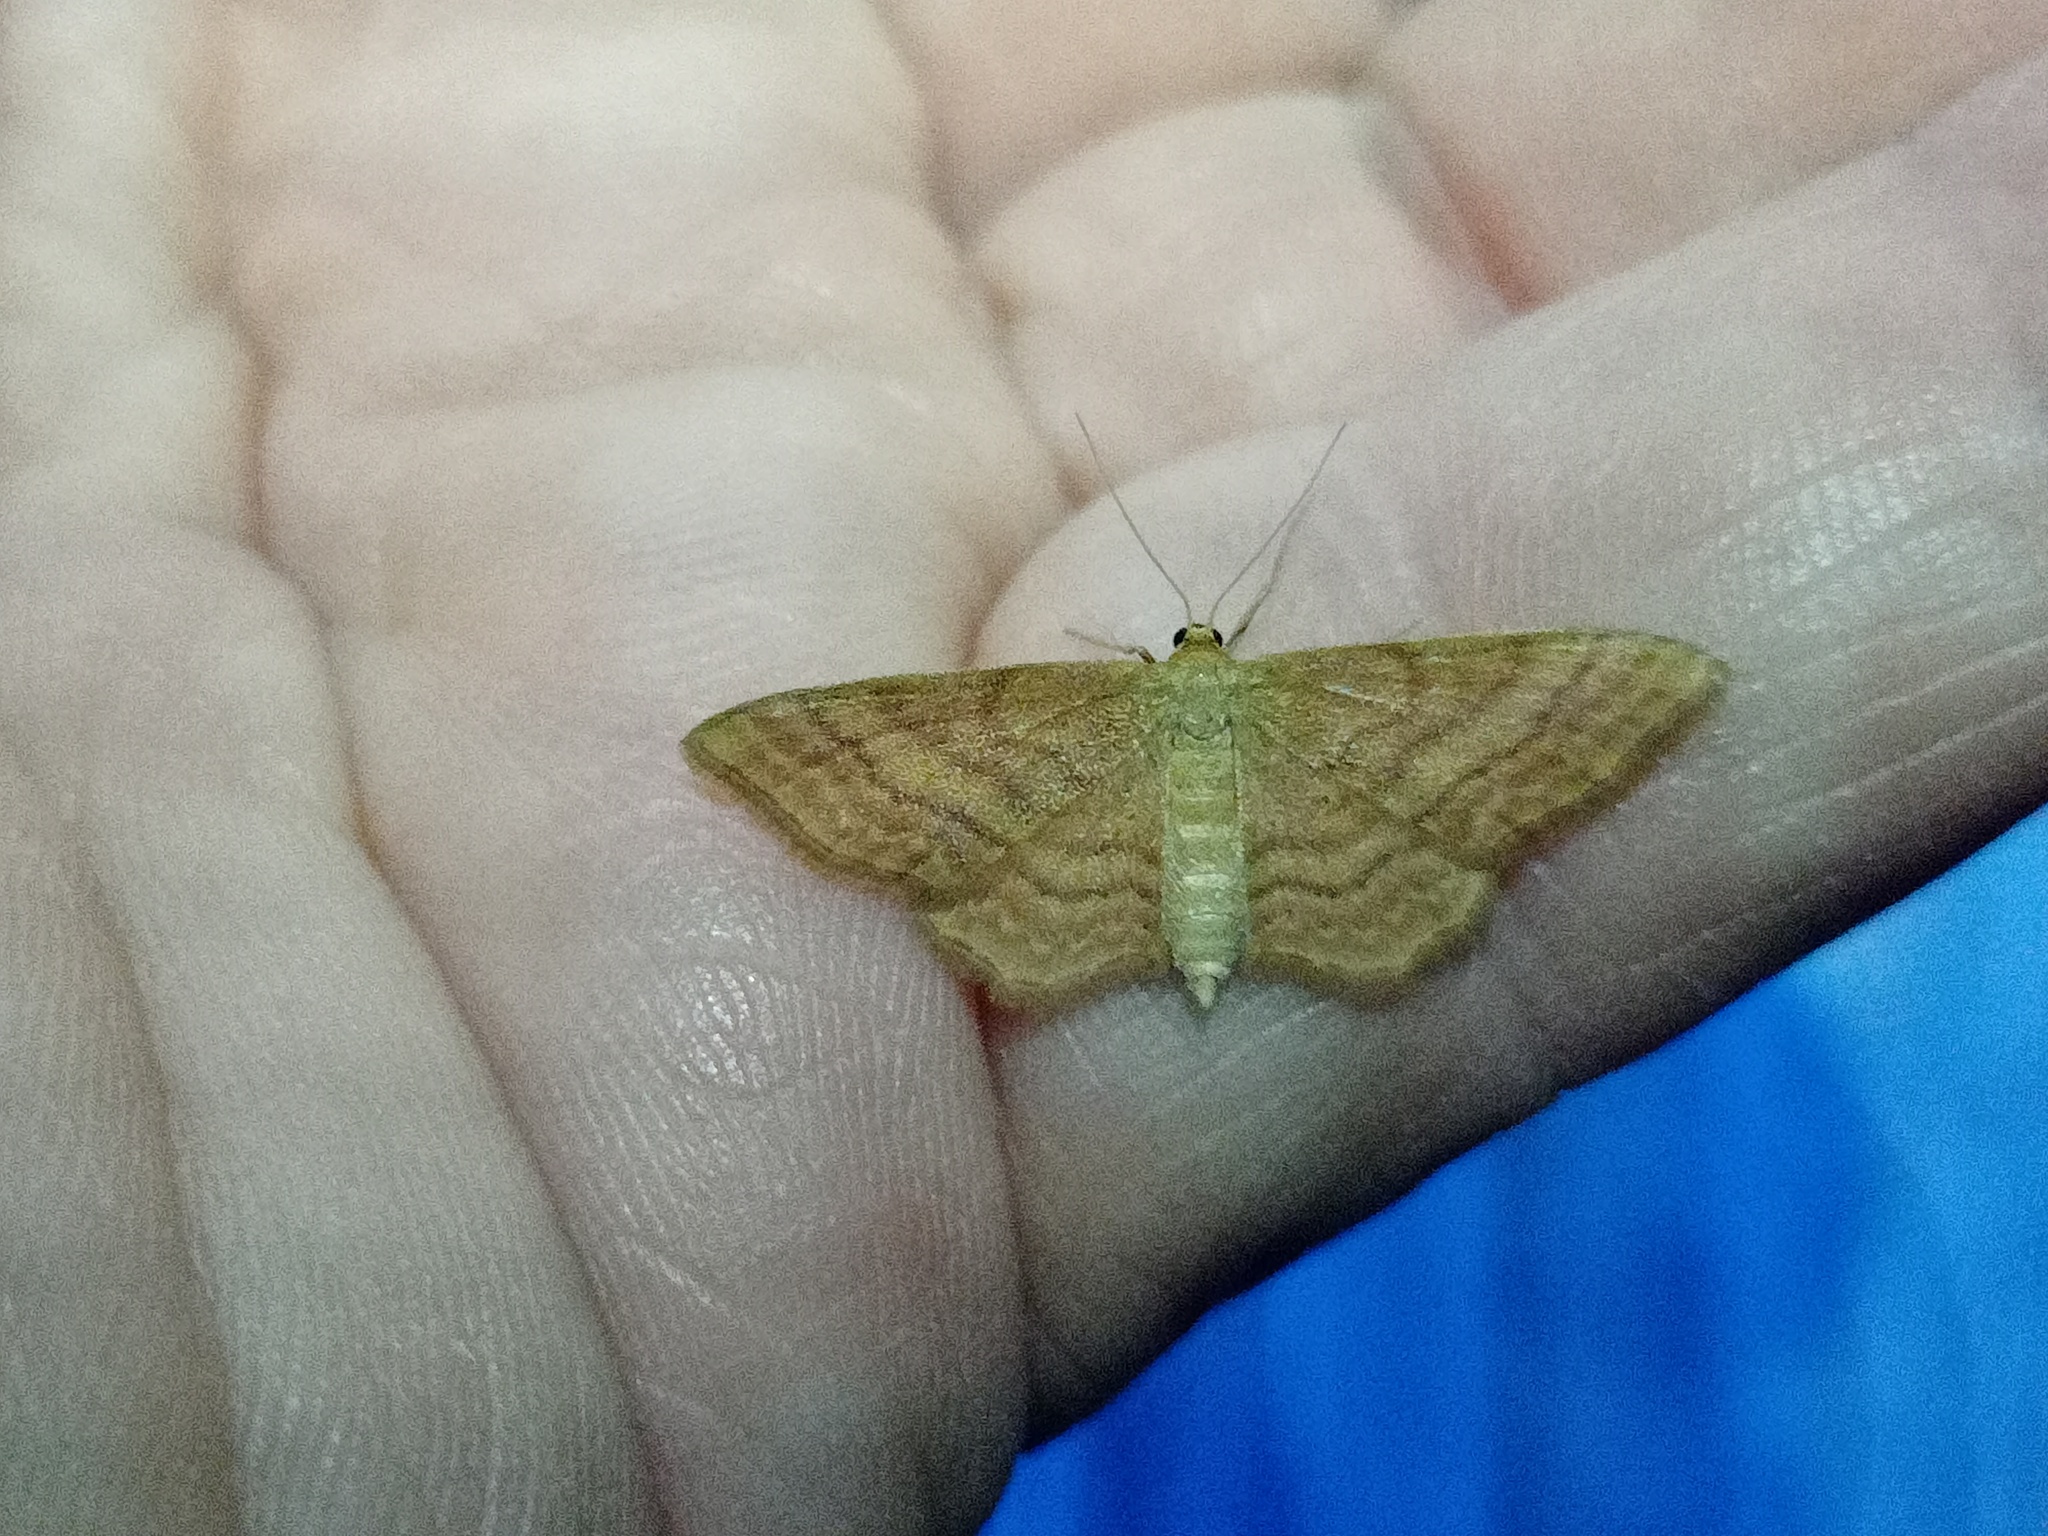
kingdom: Animalia
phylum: Arthropoda
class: Insecta
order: Lepidoptera
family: Geometridae
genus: Idaea
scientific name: Idaea ochrata
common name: Bright wave
